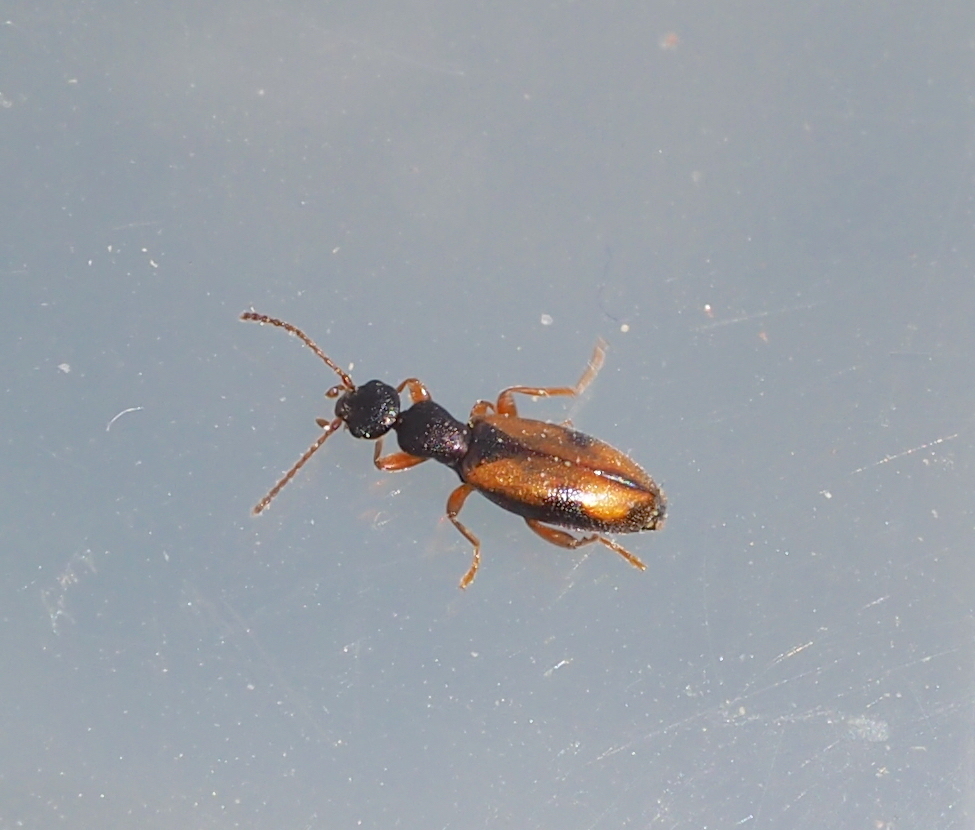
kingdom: Animalia
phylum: Arthropoda
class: Insecta
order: Coleoptera
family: Anthicidae
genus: Cordicomus
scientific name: Cordicomus gracilis
